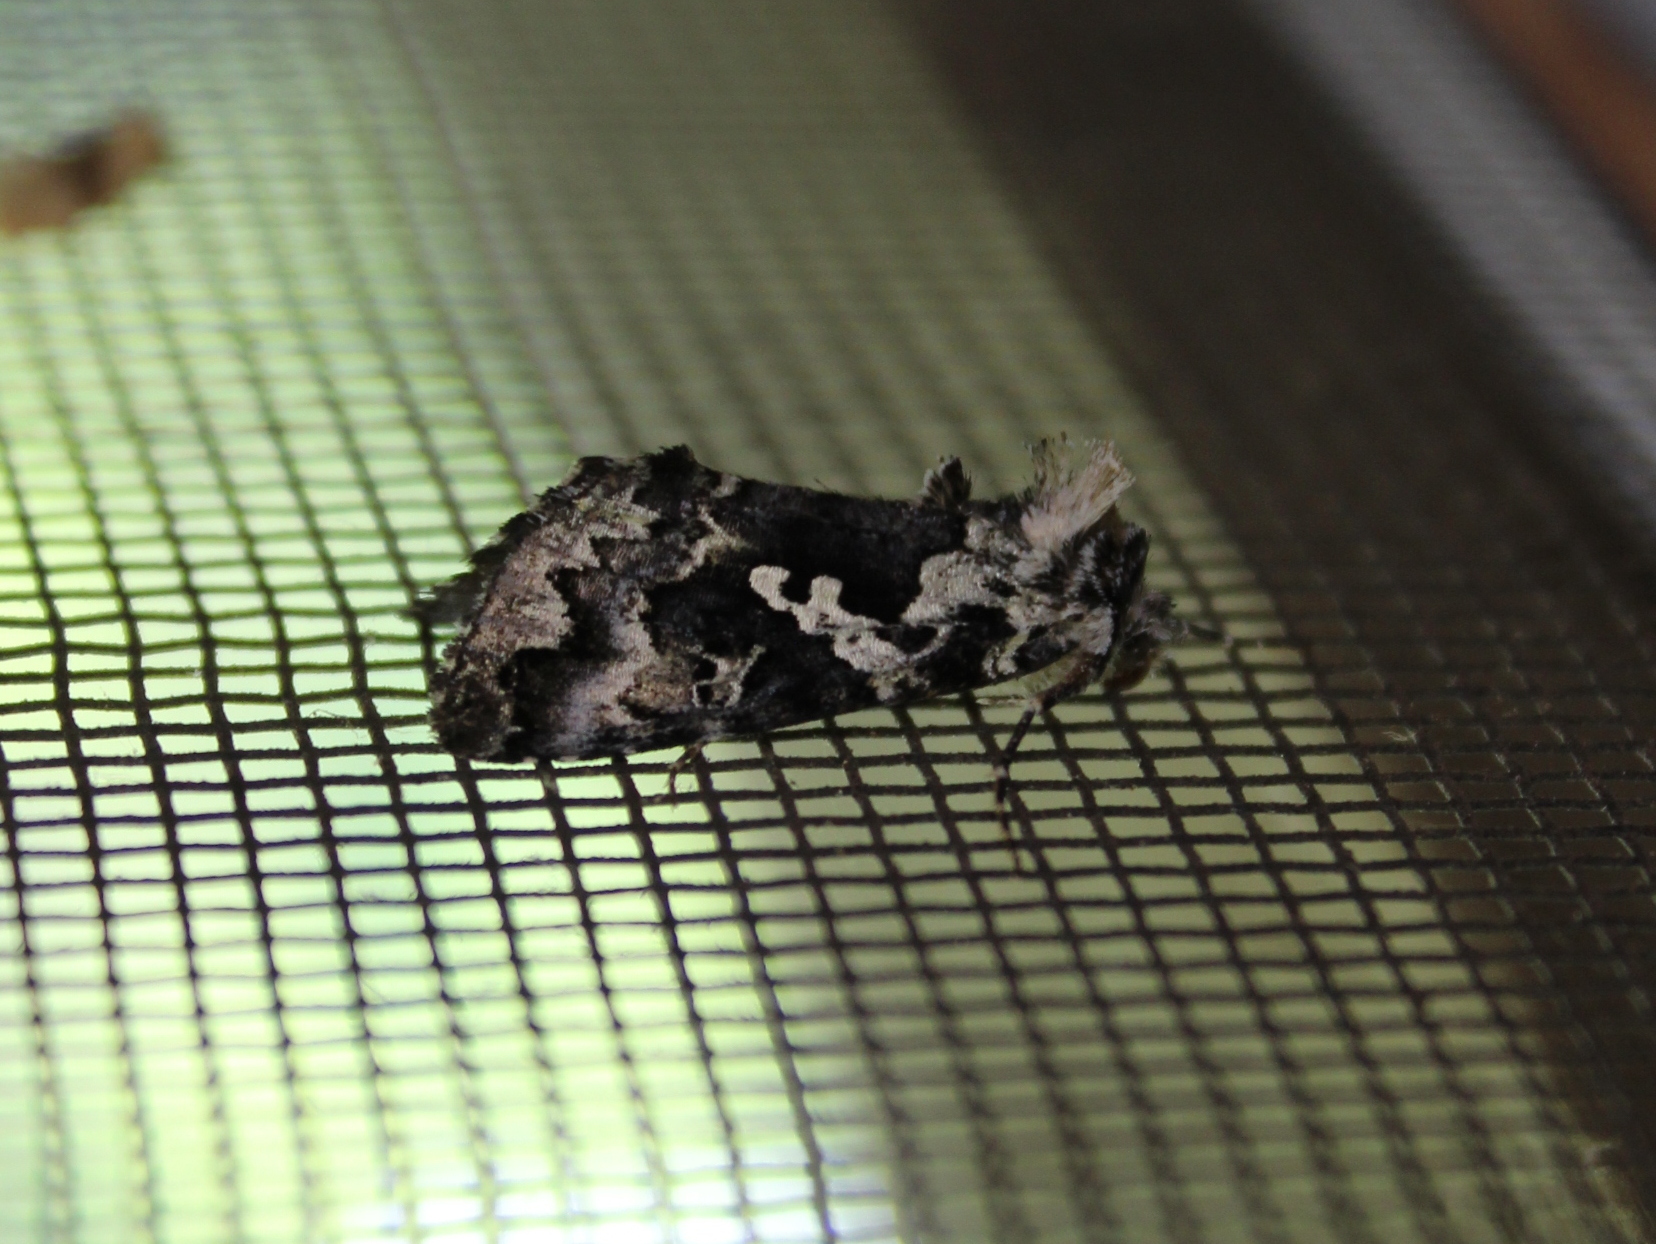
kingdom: Animalia
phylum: Arthropoda
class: Insecta
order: Lepidoptera
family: Noctuidae
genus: Syngrapha
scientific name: Syngrapha rectangula
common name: Angulated cutworm
